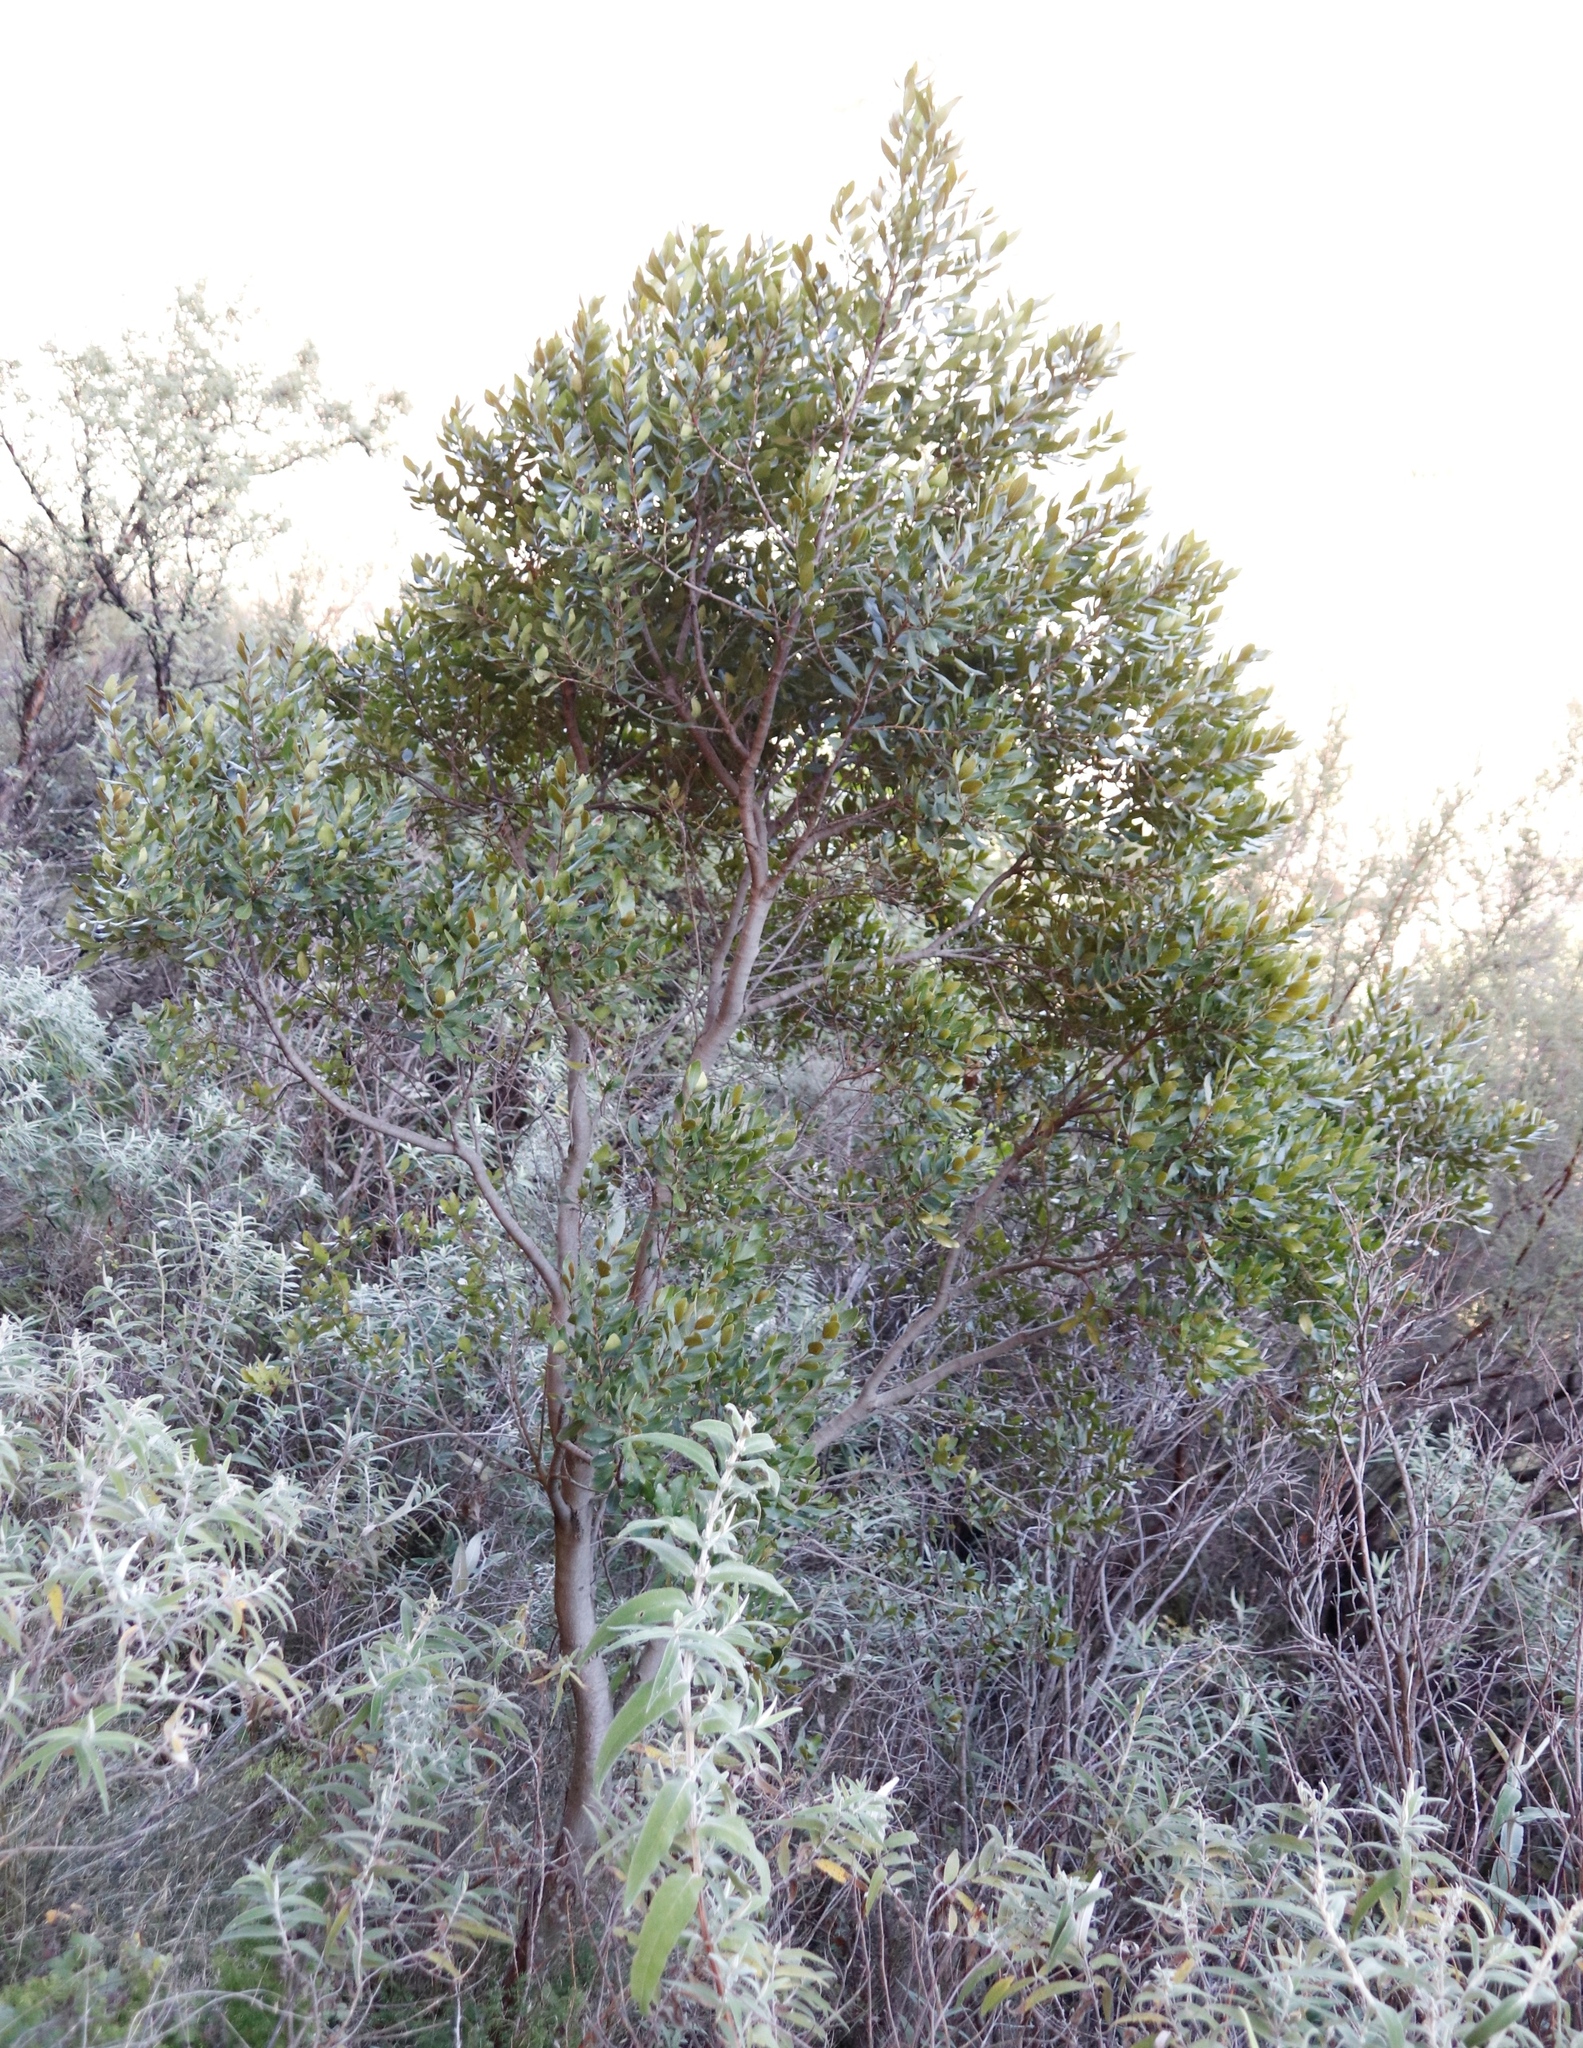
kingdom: Plantae
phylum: Tracheophyta
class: Magnoliopsida
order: Ericales
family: Ebenaceae
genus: Euclea
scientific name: Euclea crispa
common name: Blue guarri
